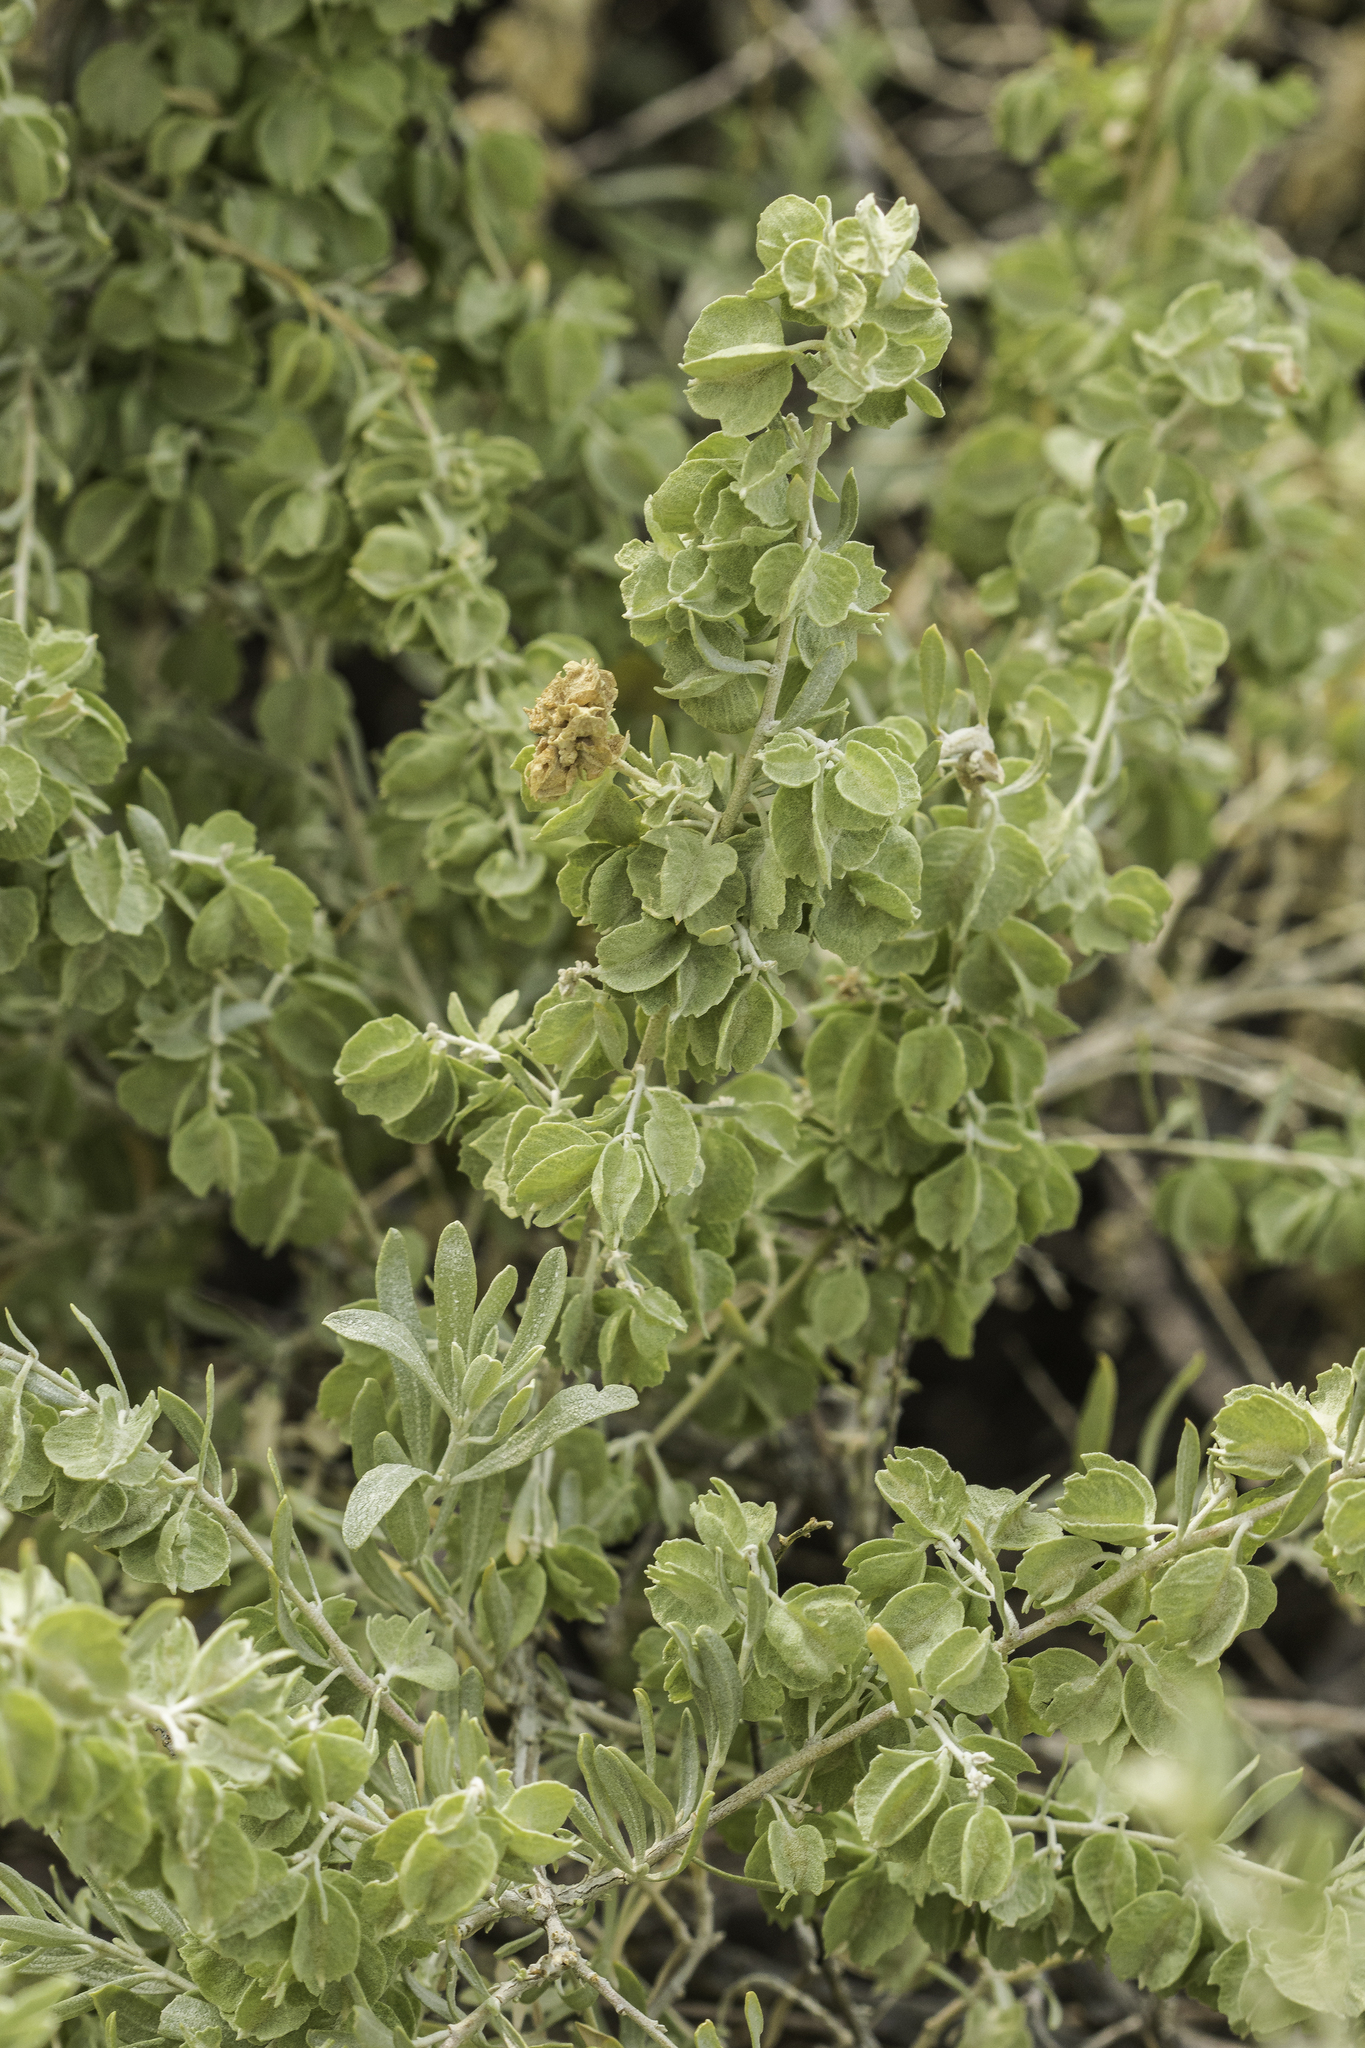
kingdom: Plantae
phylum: Tracheophyta
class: Magnoliopsida
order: Caryophyllales
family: Amaranthaceae
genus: Atriplex
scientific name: Atriplex canescens
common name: Four-wing saltbush
